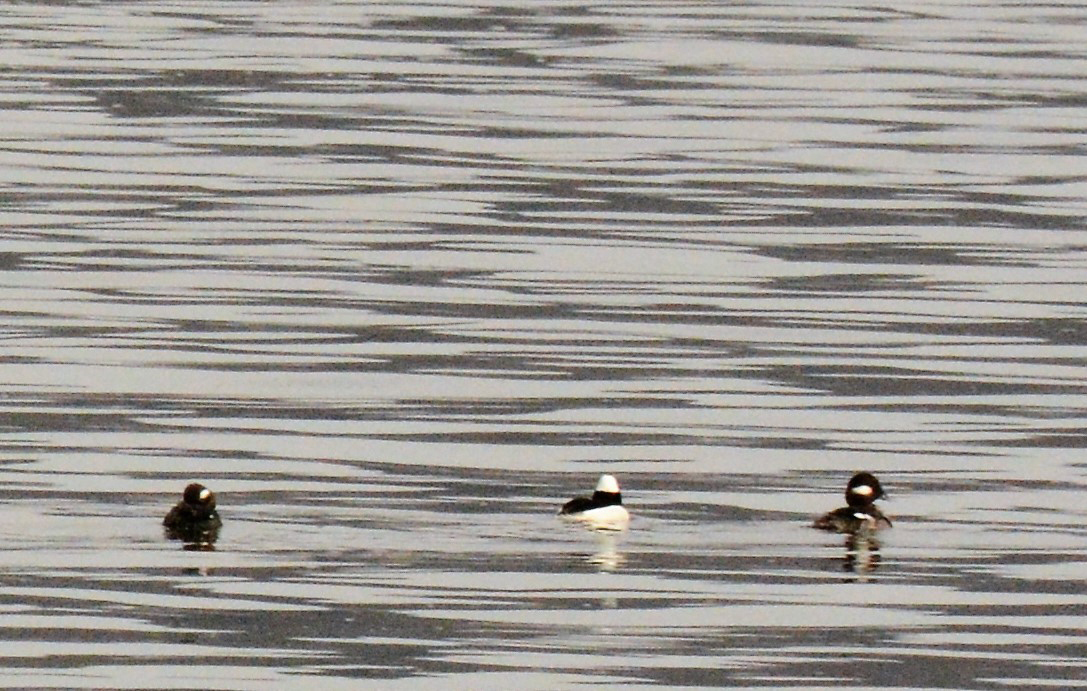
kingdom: Animalia
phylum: Chordata
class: Aves
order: Anseriformes
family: Anatidae
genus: Bucephala
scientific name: Bucephala albeola
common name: Bufflehead
